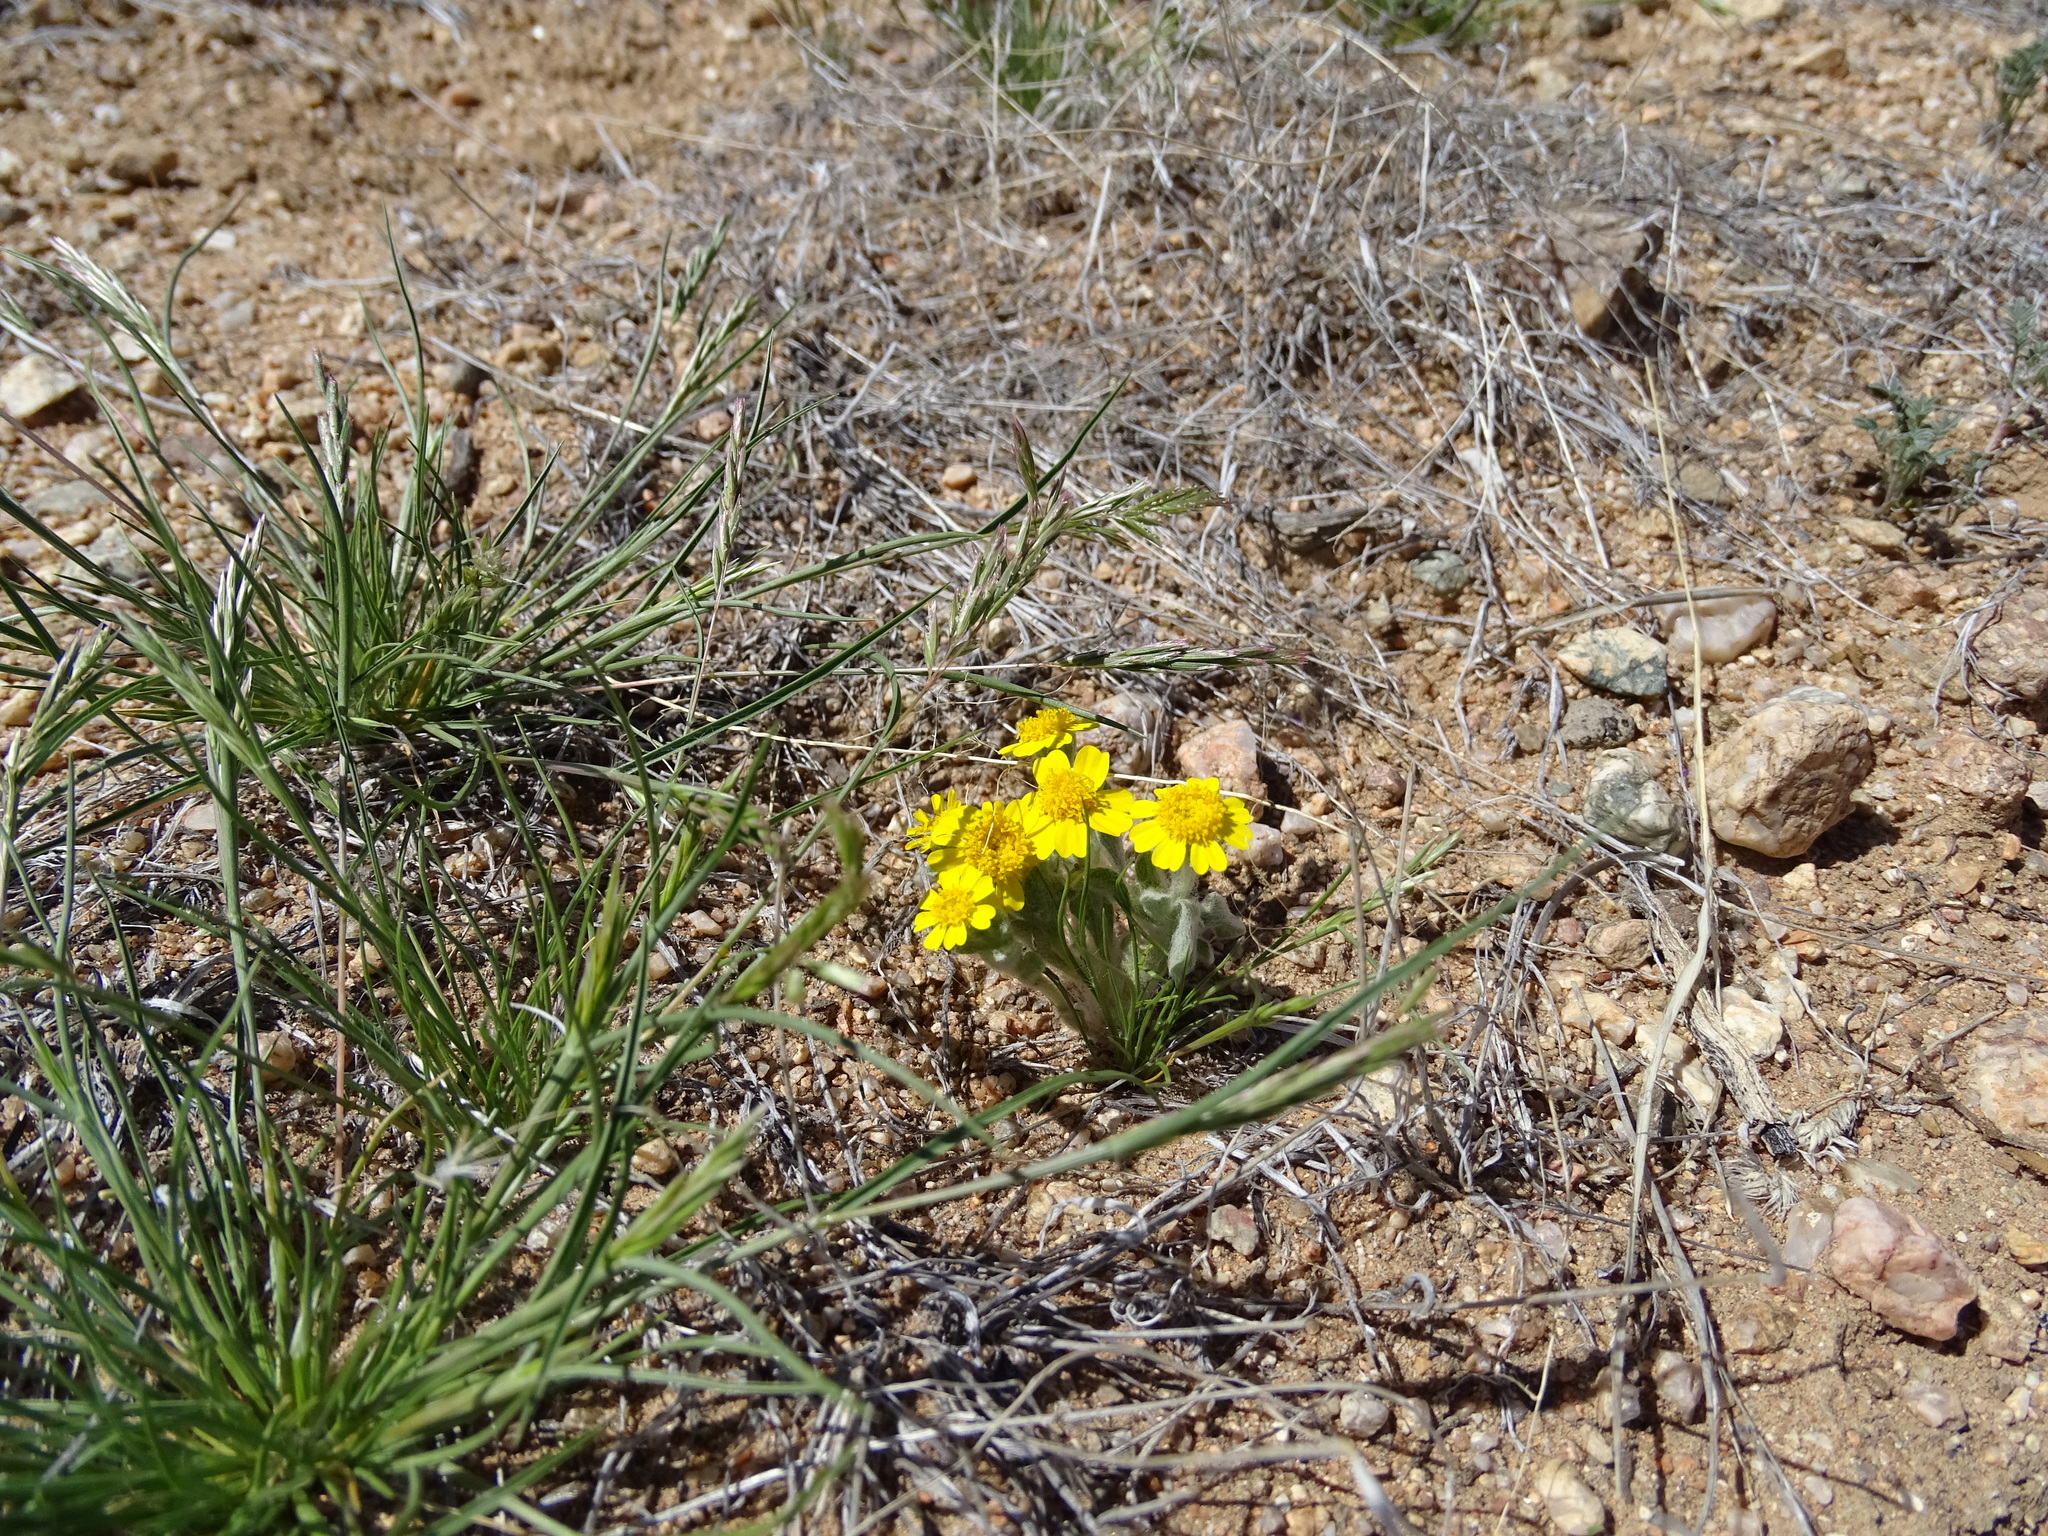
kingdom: Plantae
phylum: Tracheophyta
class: Magnoliopsida
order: Asterales
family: Asteraceae
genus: Eriophyllum
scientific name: Eriophyllum wallacei
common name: Wallace's woolly daisy
